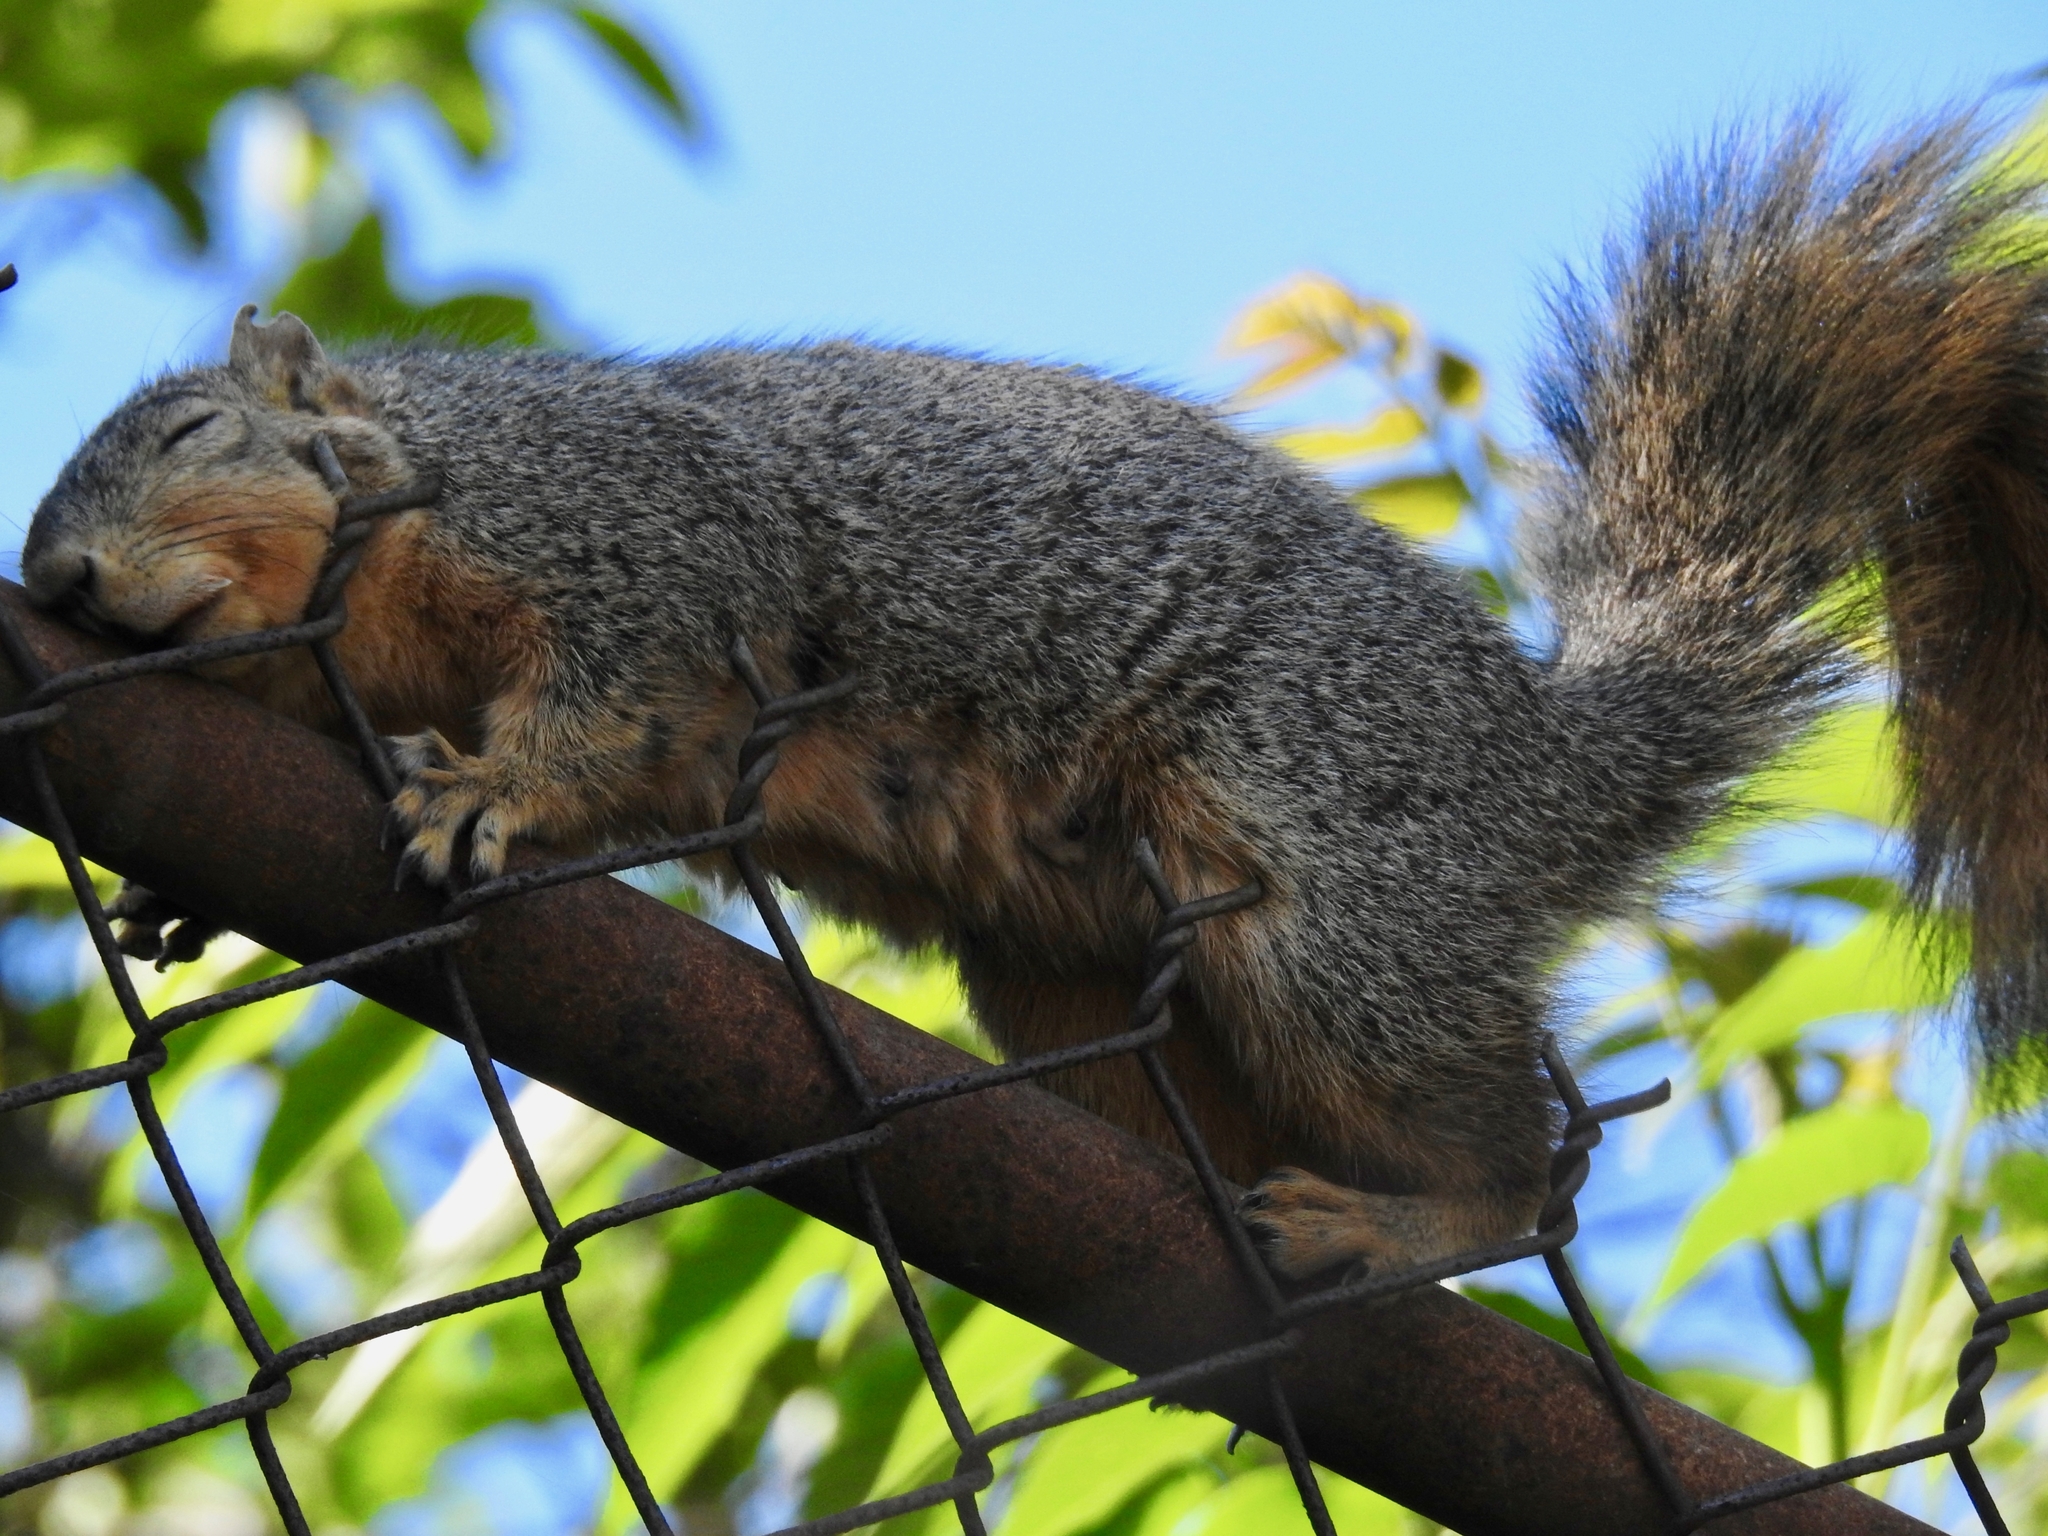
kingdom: Animalia
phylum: Chordata
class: Mammalia
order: Rodentia
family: Sciuridae
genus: Sciurus
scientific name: Sciurus niger
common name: Fox squirrel
